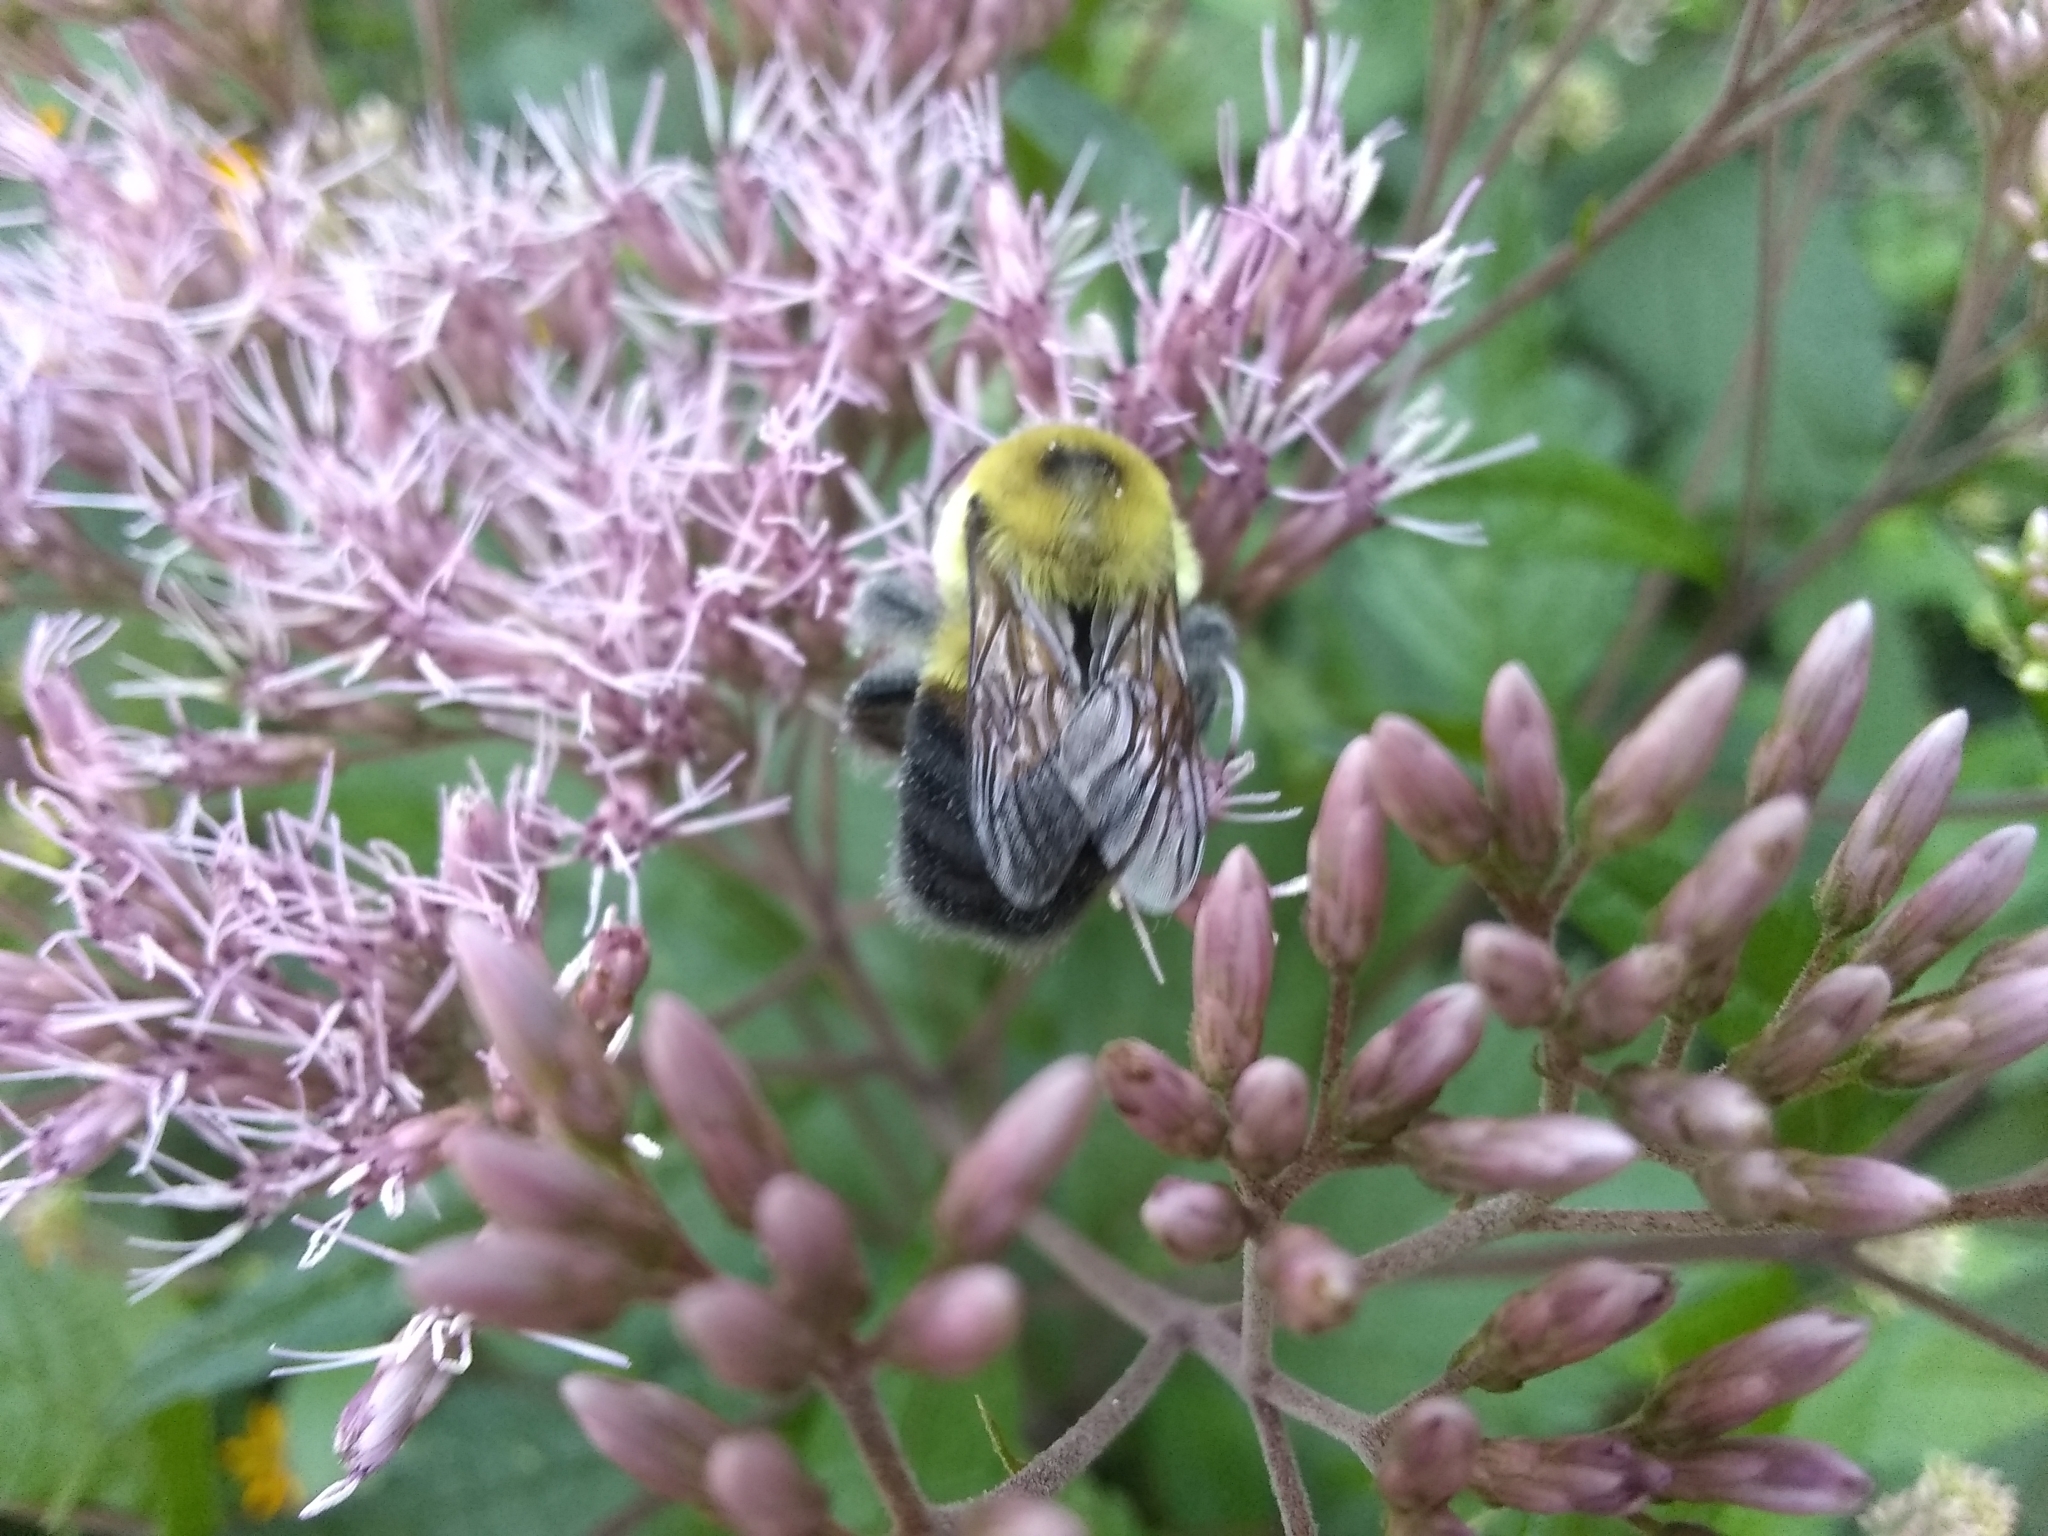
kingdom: Animalia
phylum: Arthropoda
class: Insecta
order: Hymenoptera
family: Apidae
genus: Bombus
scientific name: Bombus griseocollis
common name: Brown-belted bumble bee
